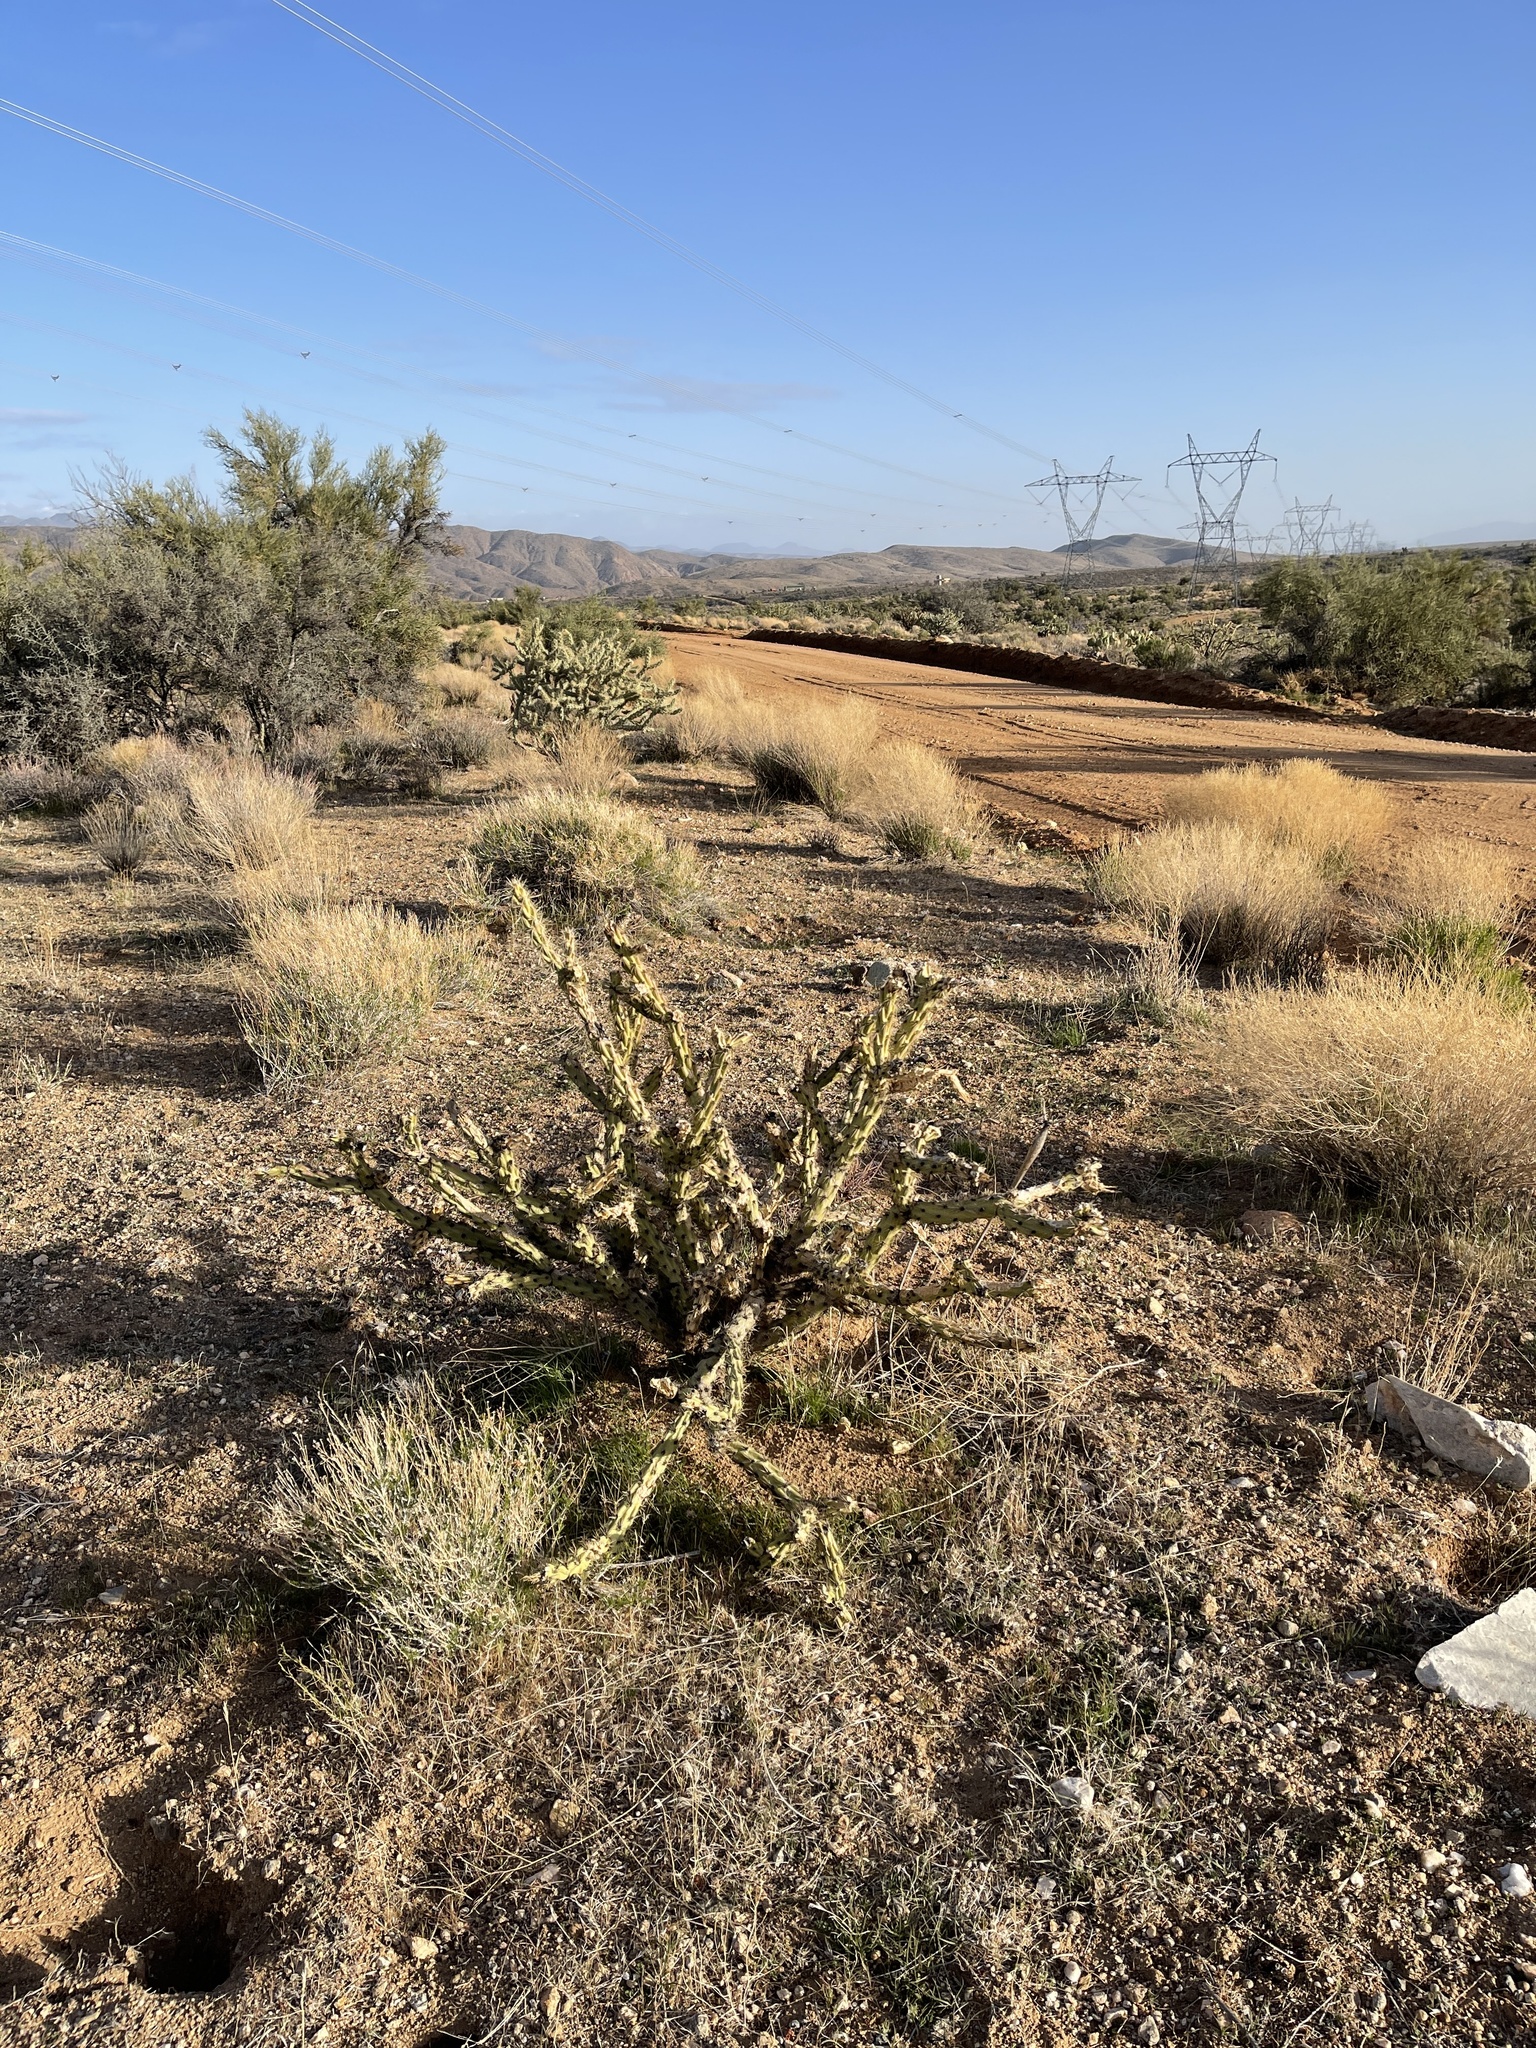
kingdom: Plantae
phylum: Tracheophyta
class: Magnoliopsida
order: Caryophyllales
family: Cactaceae
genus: Cylindropuntia
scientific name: Cylindropuntia acanthocarpa
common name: Buckhorn cholla
